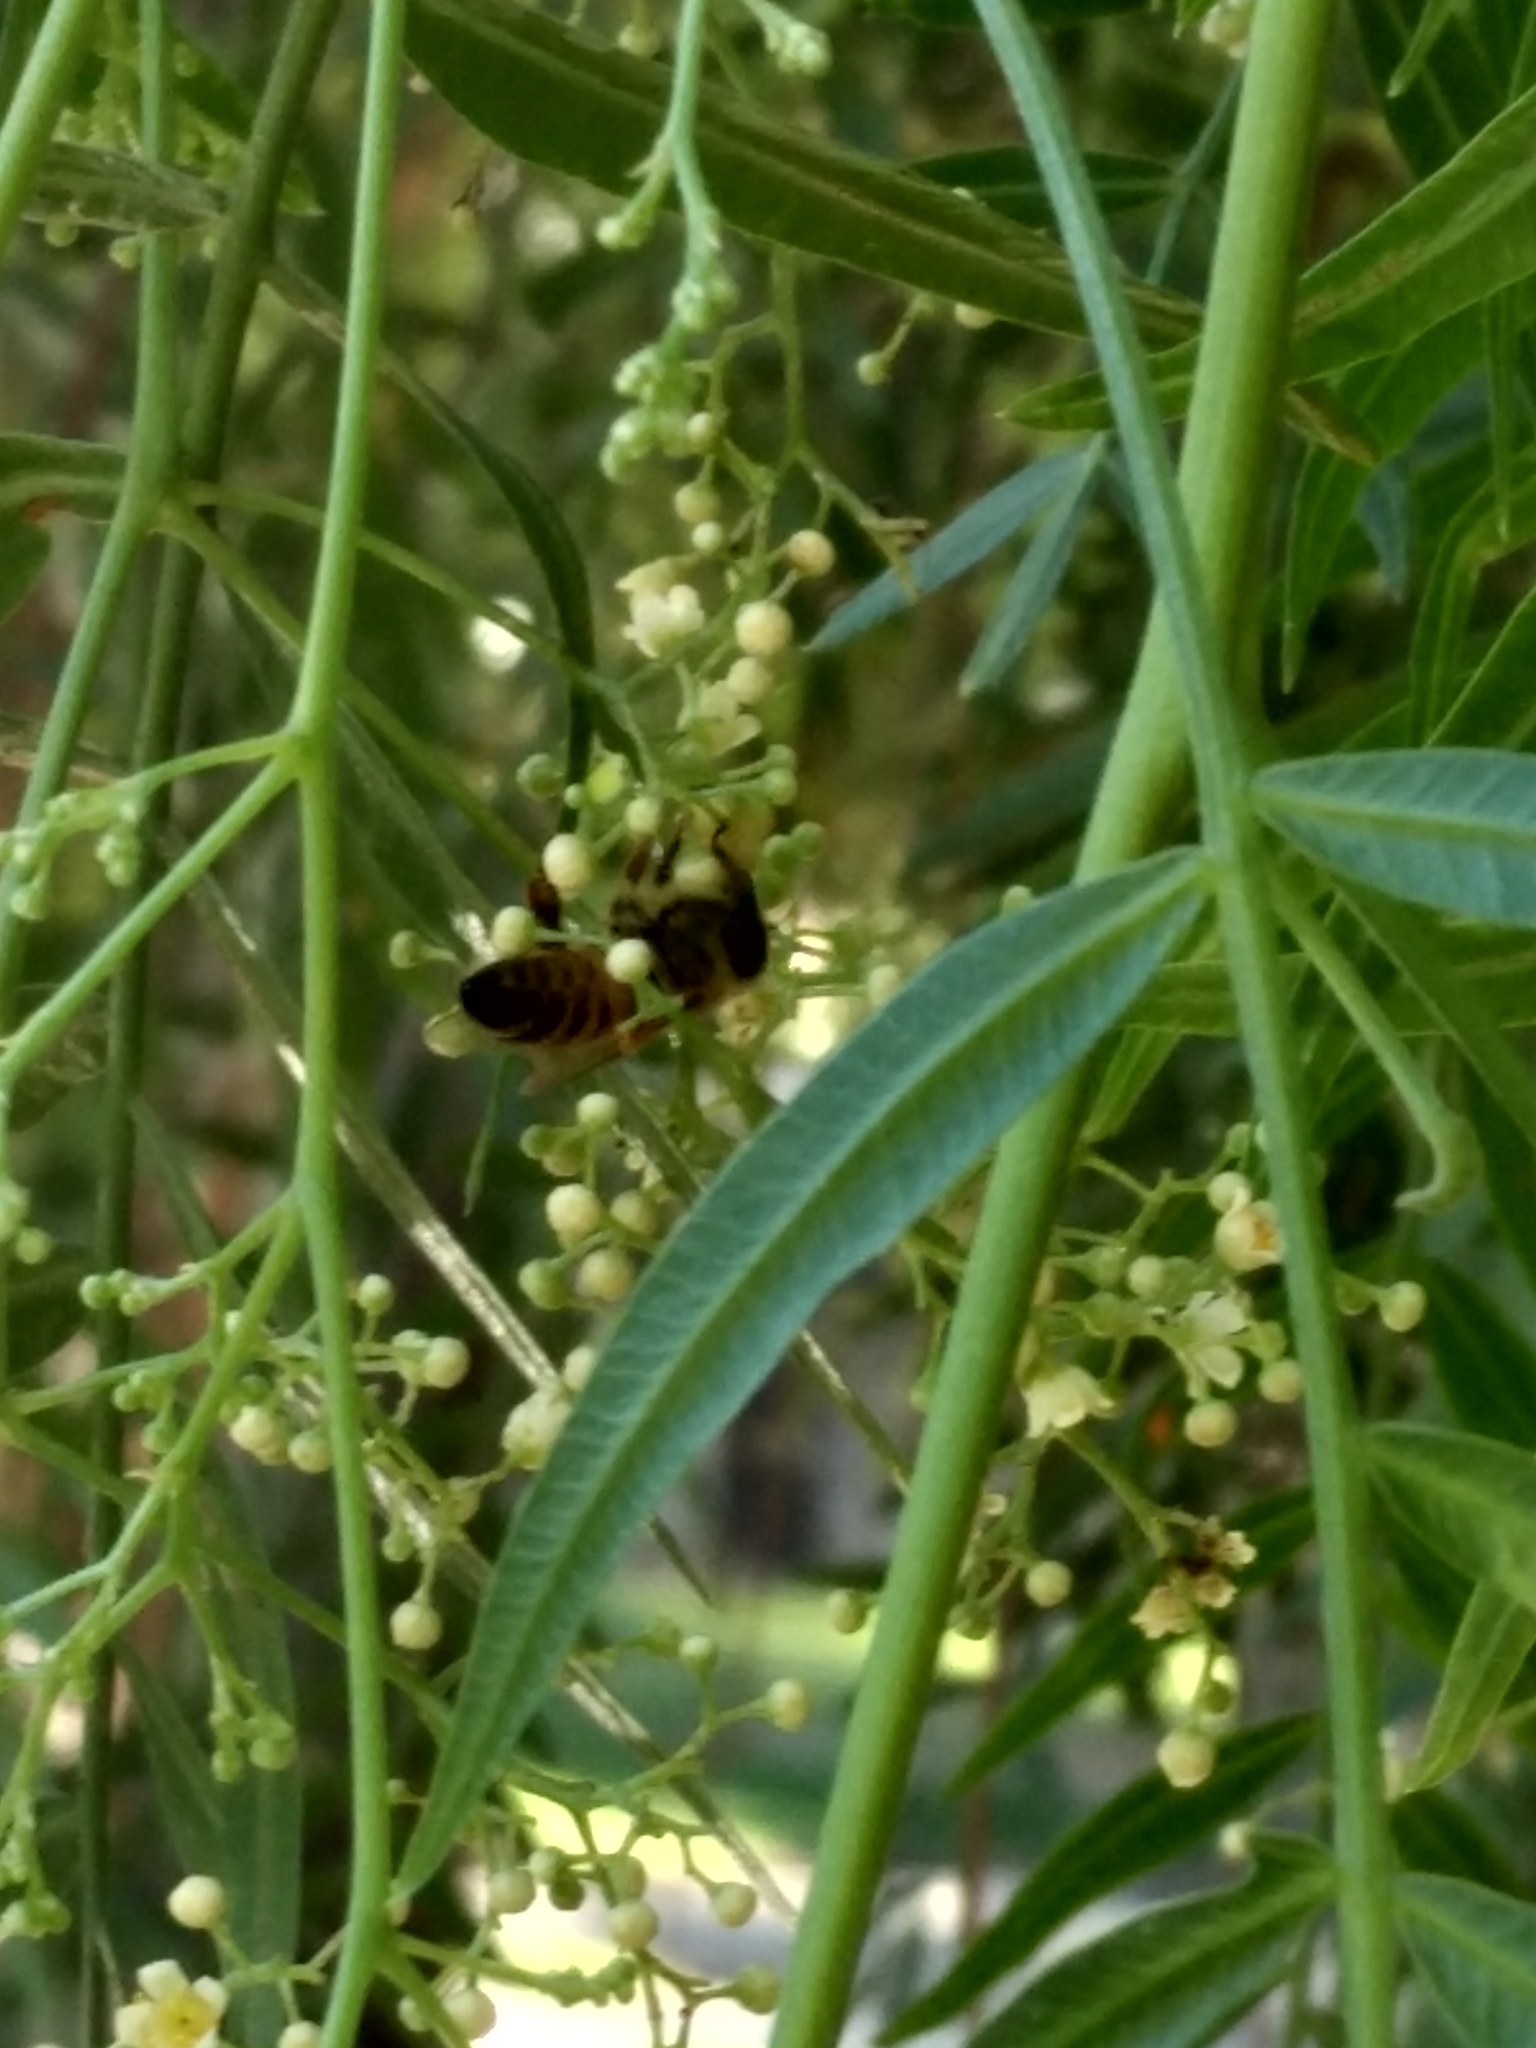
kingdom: Animalia
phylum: Arthropoda
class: Insecta
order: Hymenoptera
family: Apidae
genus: Apis
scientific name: Apis mellifera
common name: Honey bee
